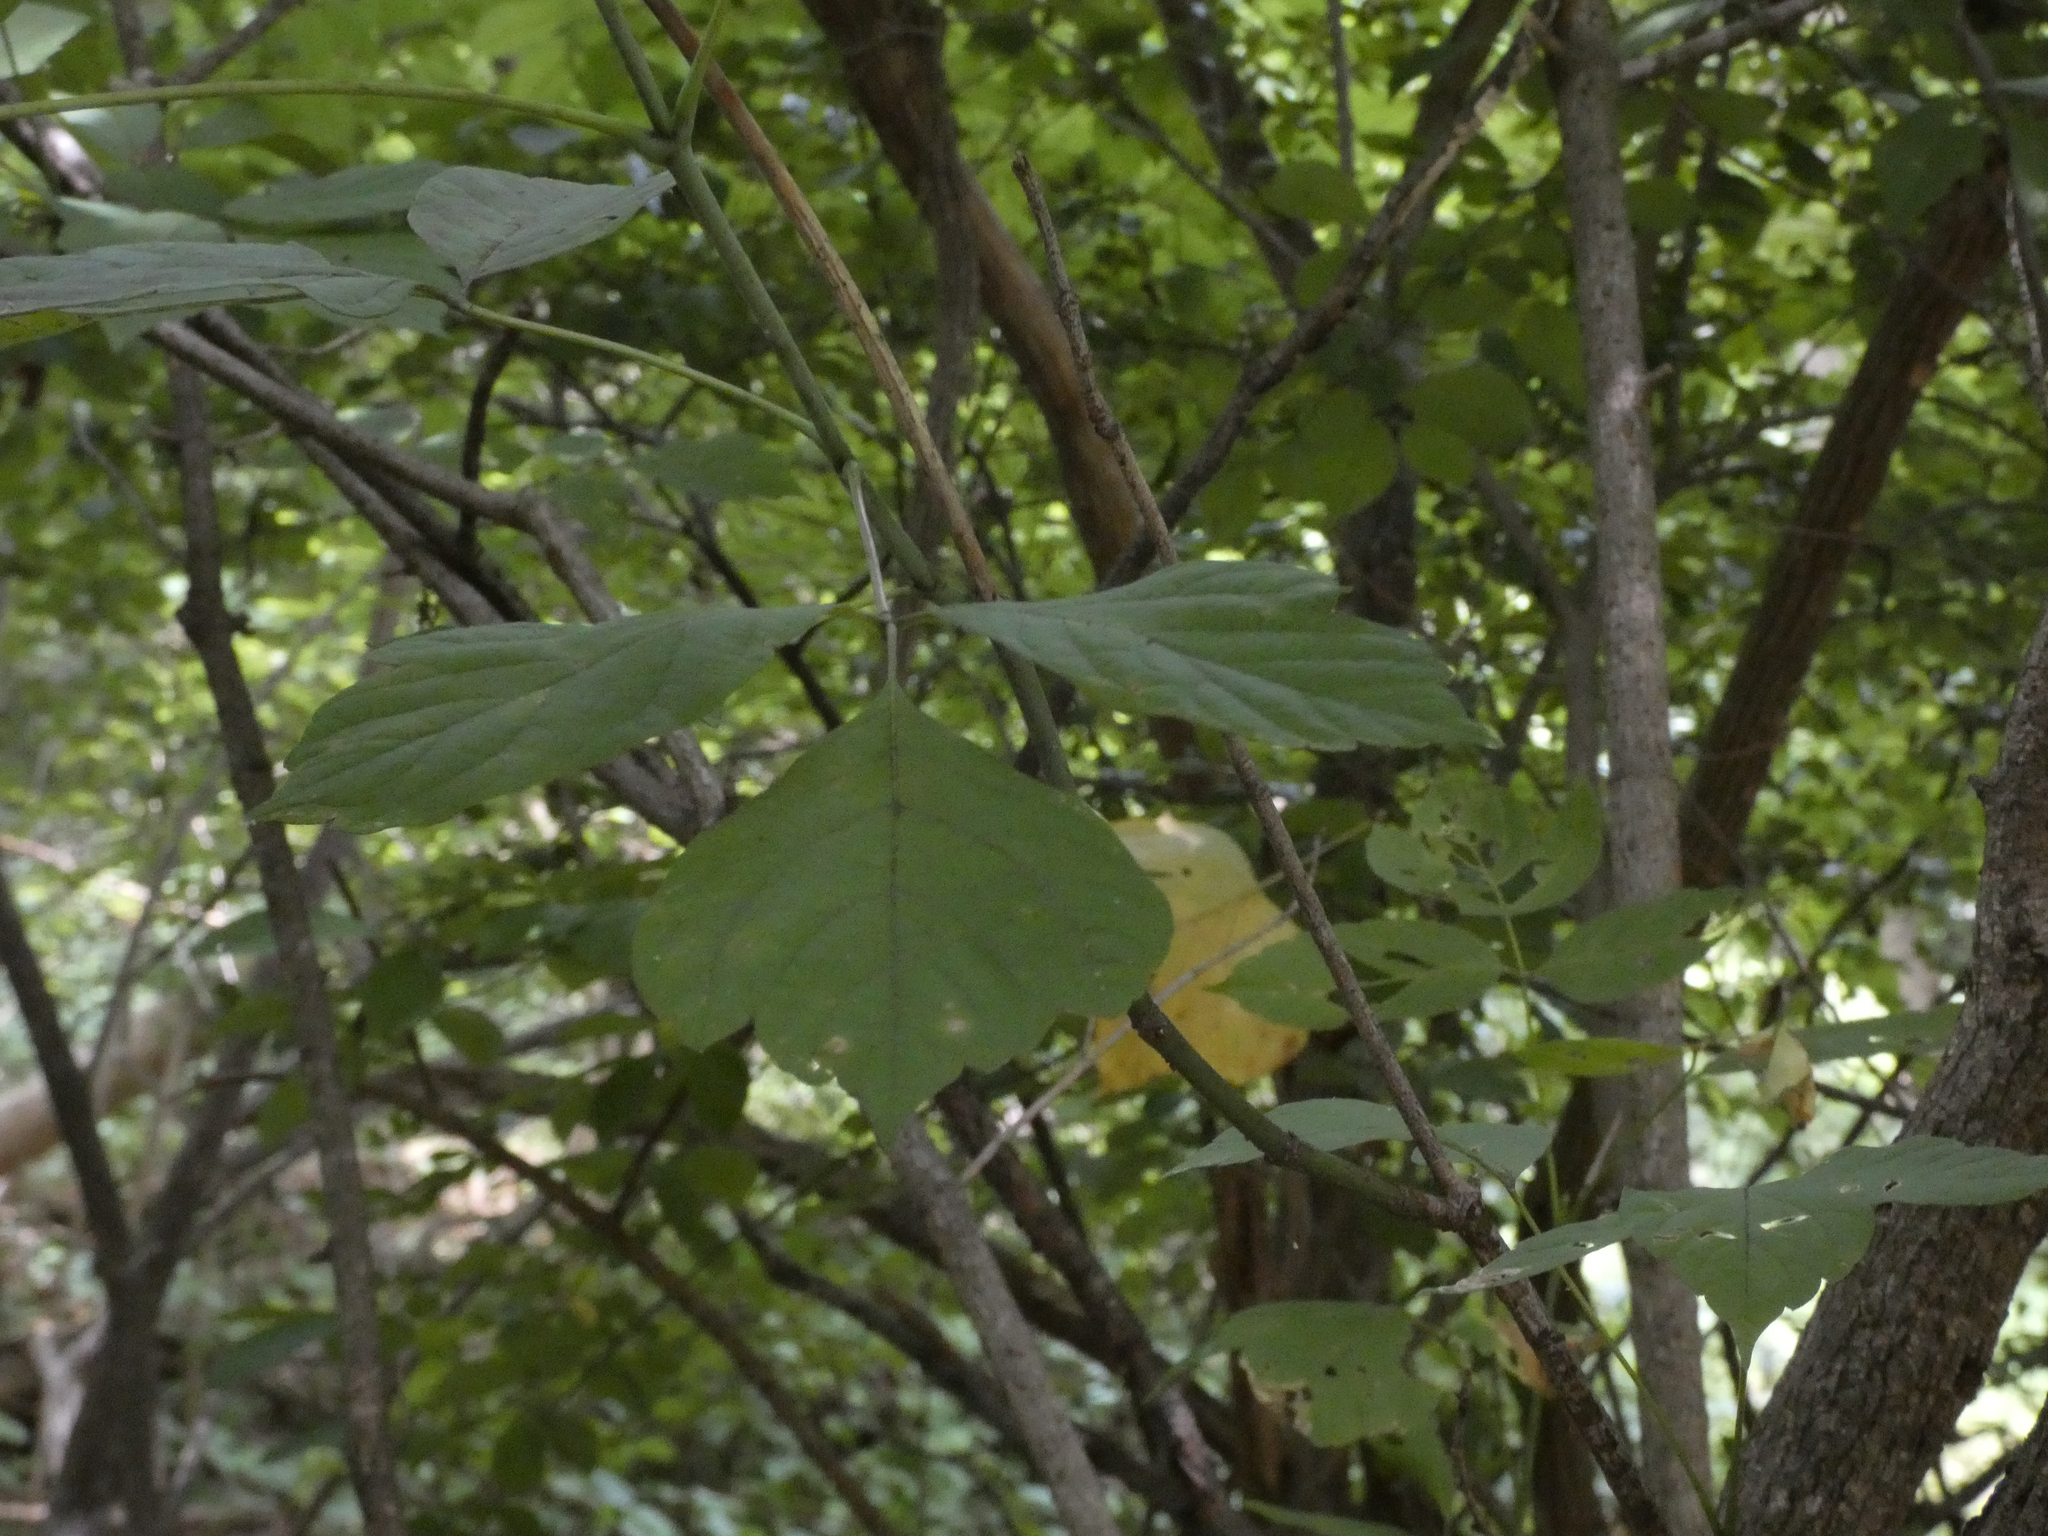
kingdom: Plantae
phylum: Tracheophyta
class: Magnoliopsida
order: Sapindales
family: Sapindaceae
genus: Acer
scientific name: Acer negundo
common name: Ashleaf maple
